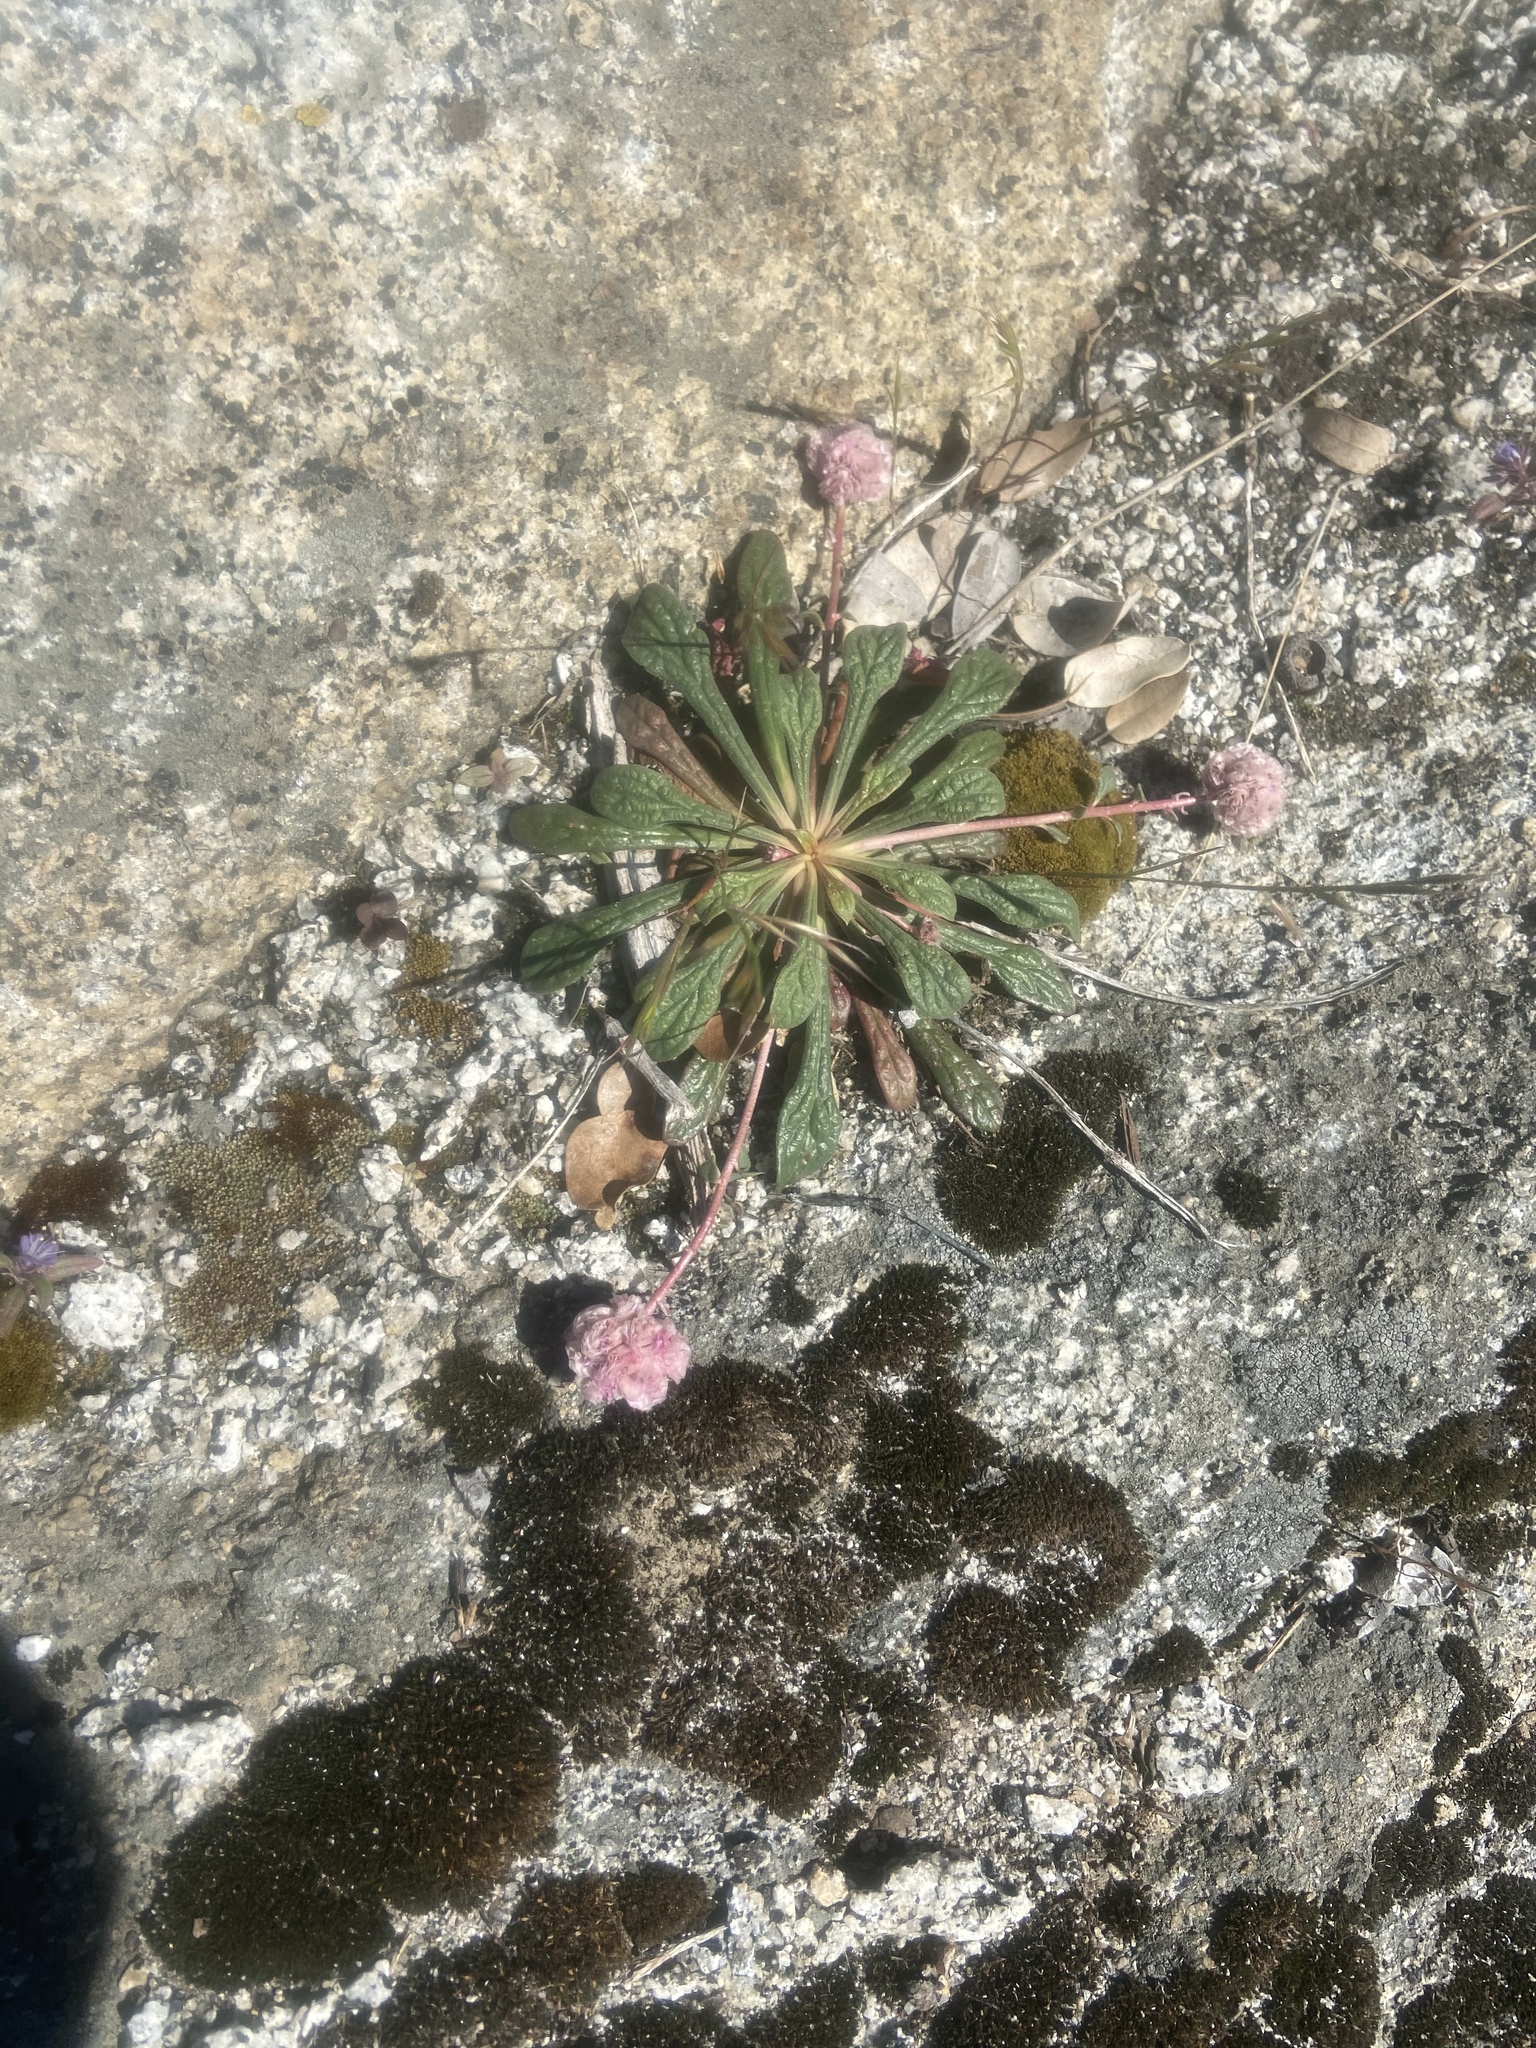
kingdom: Plantae
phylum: Tracheophyta
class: Magnoliopsida
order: Caryophyllales
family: Montiaceae
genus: Calyptridium
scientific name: Calyptridium monospermum
